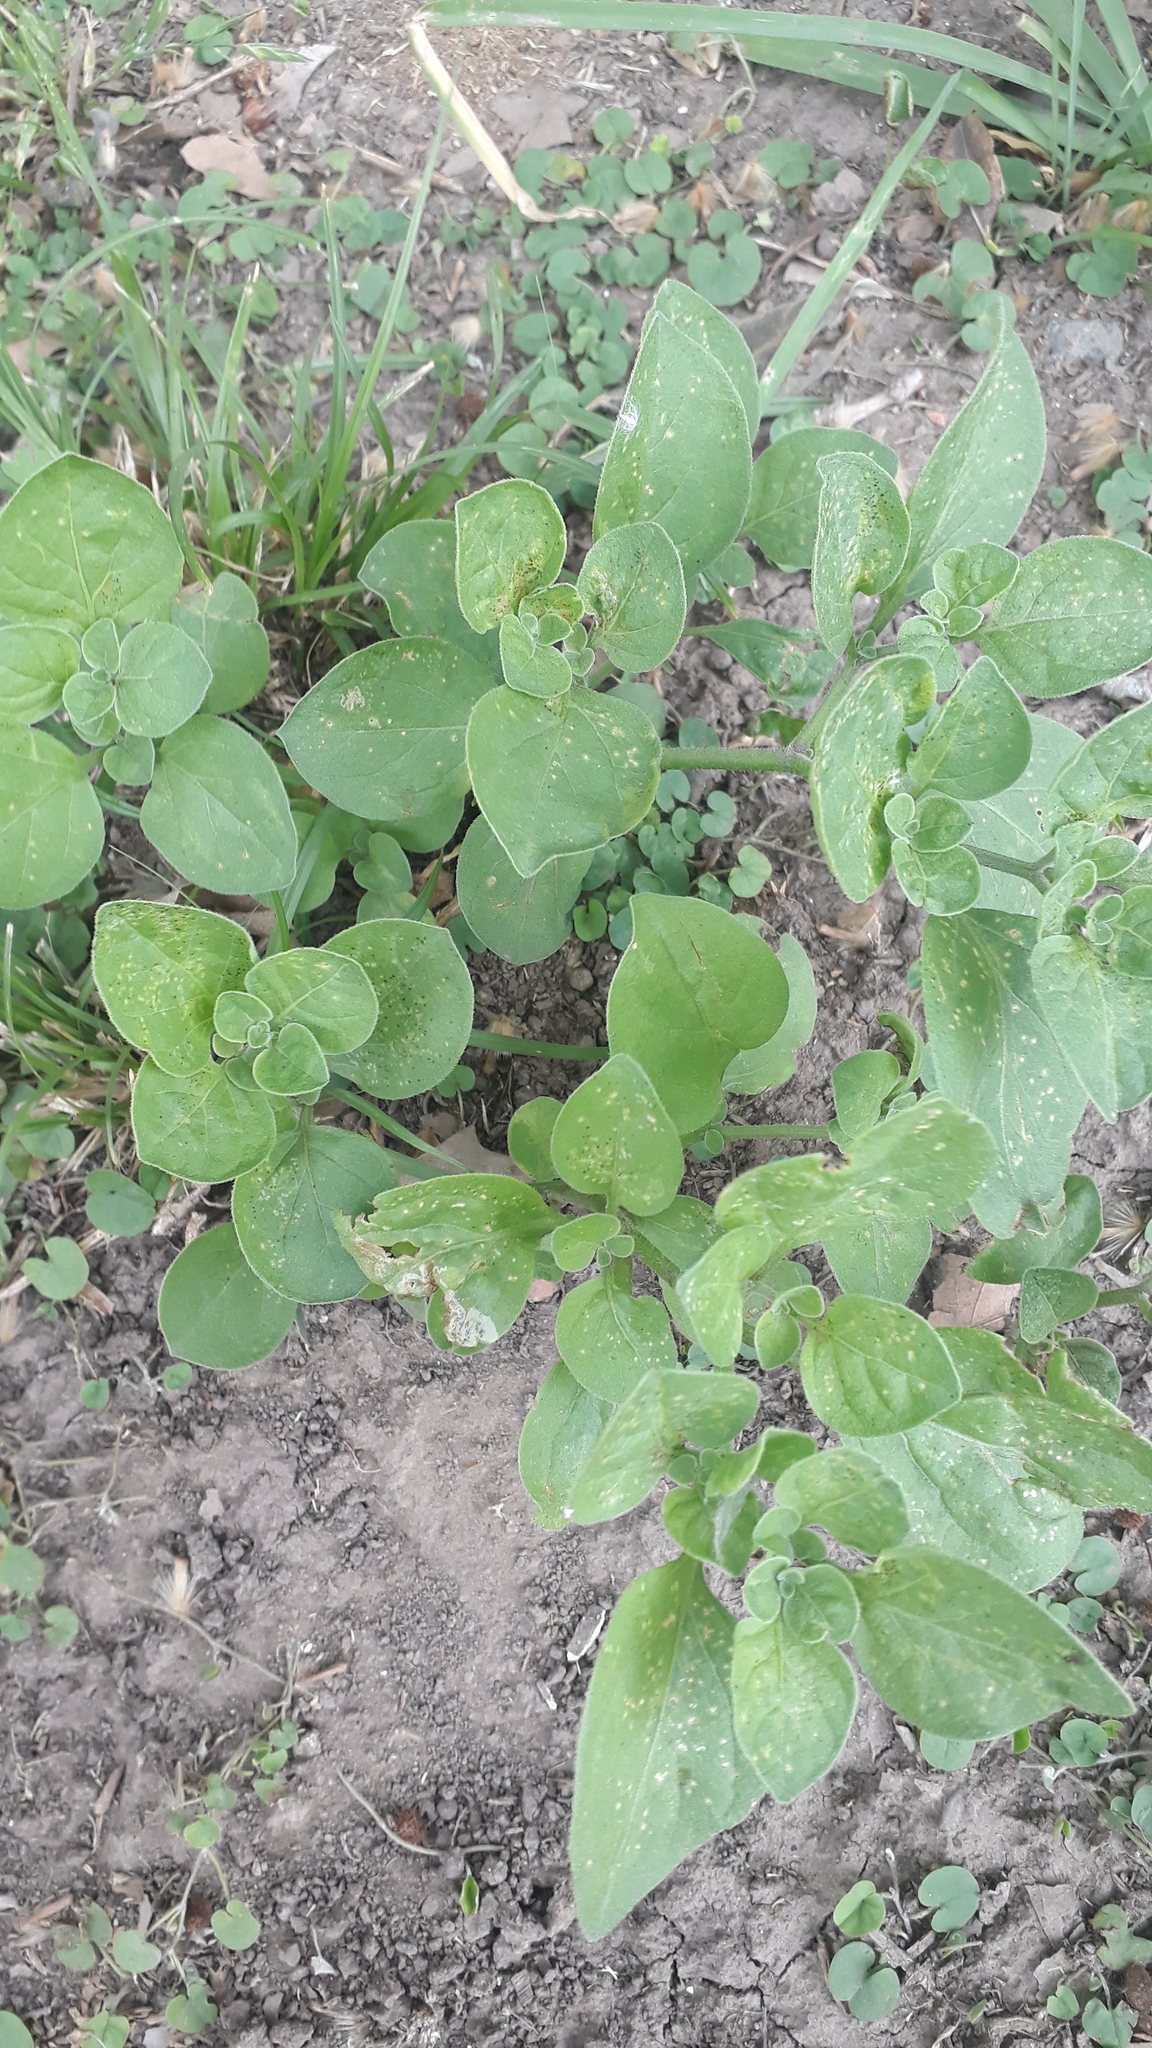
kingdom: Plantae
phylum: Tracheophyta
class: Magnoliopsida
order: Solanales
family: Solanaceae
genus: Salpichroa
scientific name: Salpichroa origanifolia
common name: Lily-of-the-valley-vine
